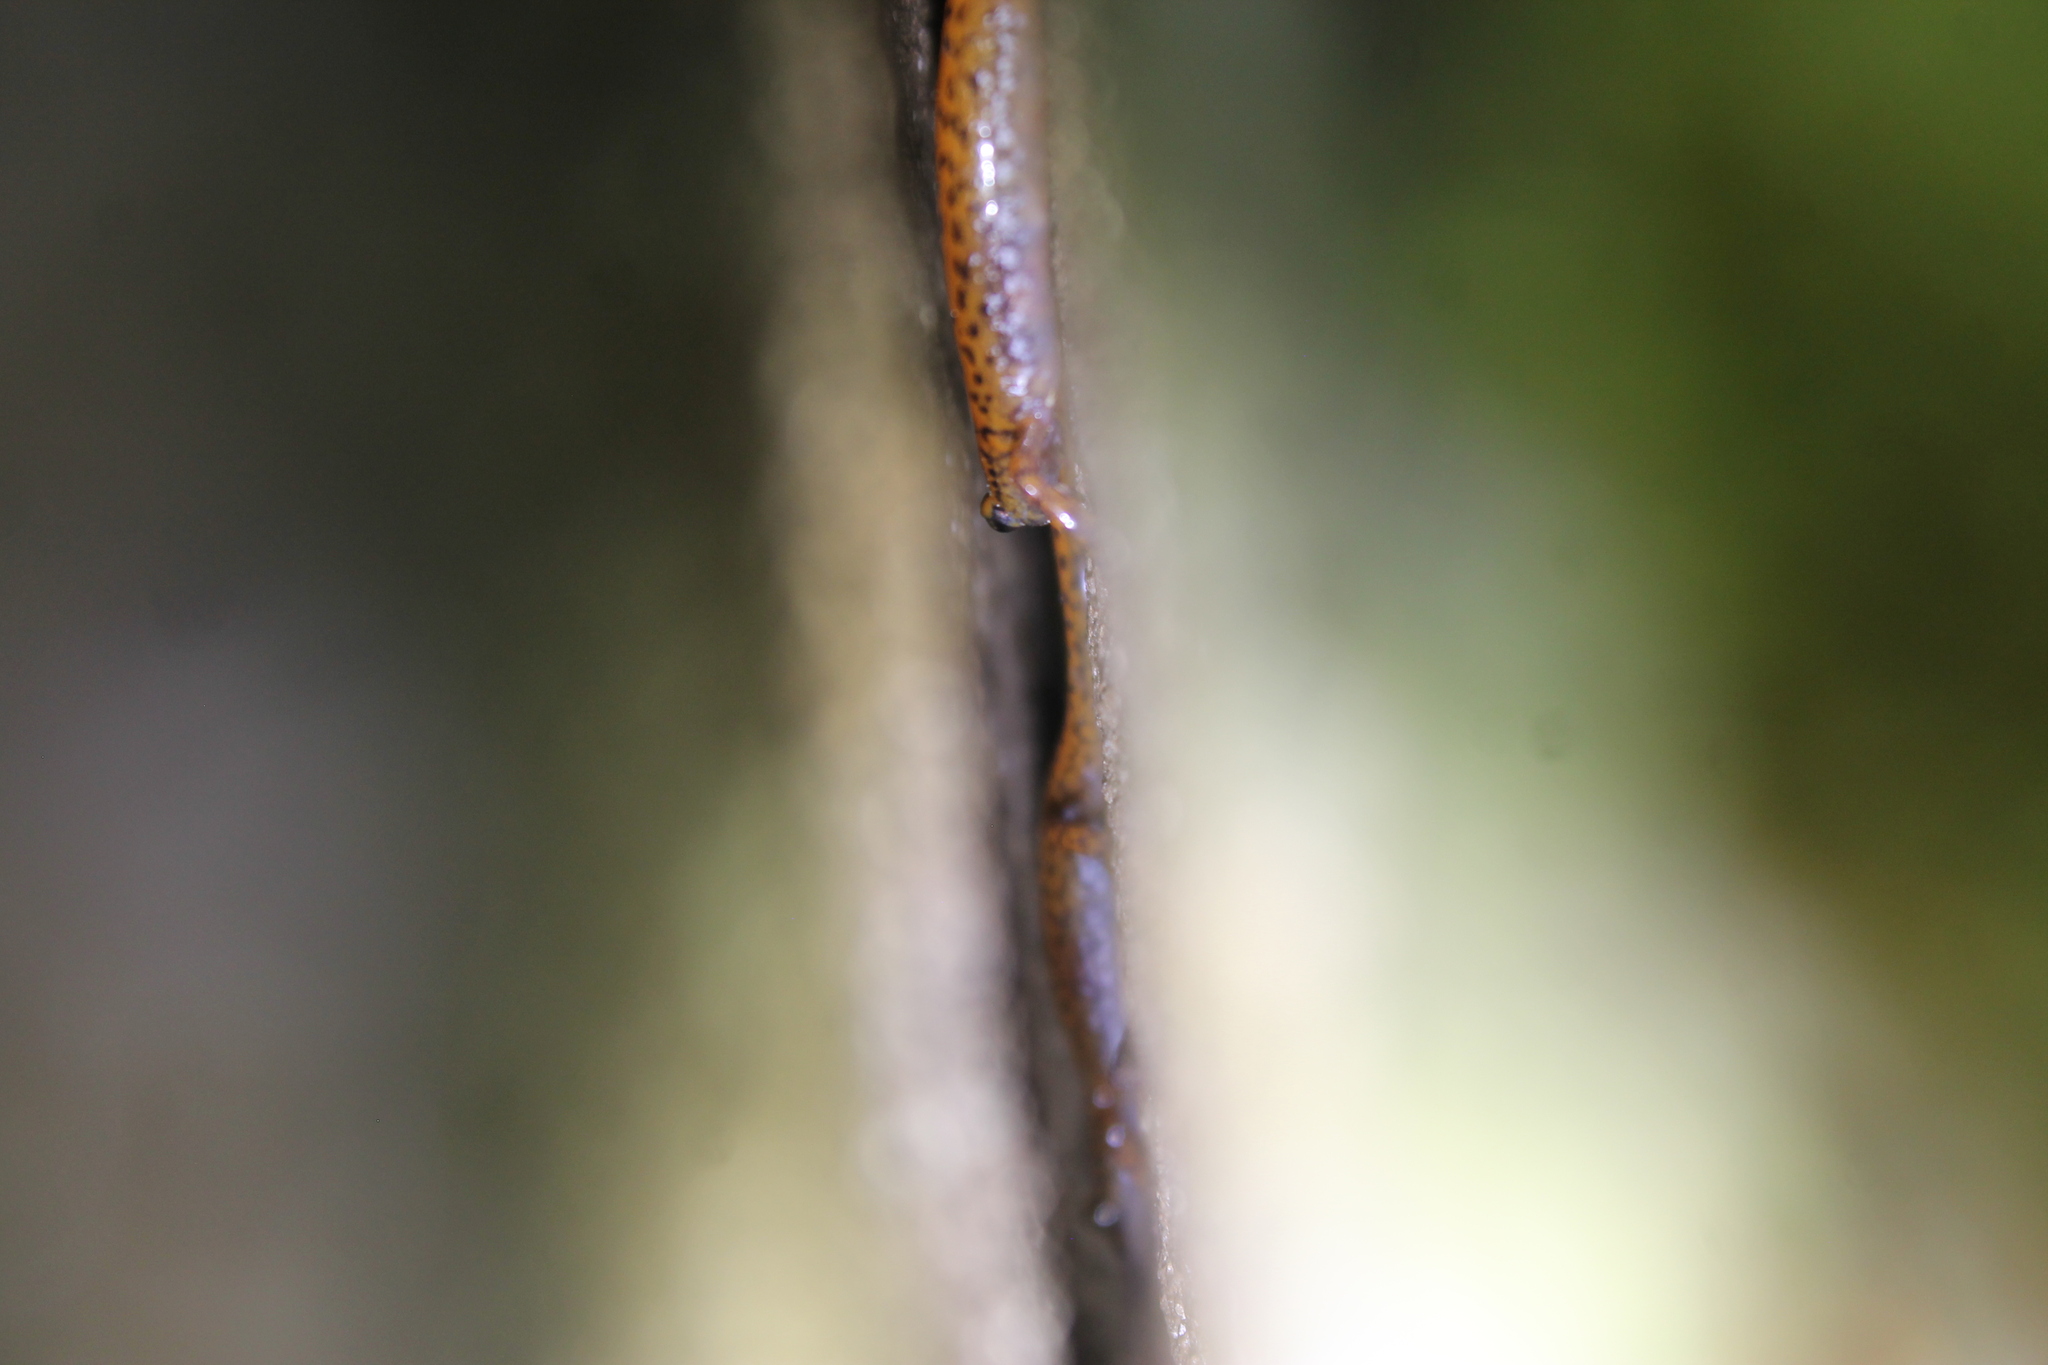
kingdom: Animalia
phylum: Chordata
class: Amphibia
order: Caudata
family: Plethodontidae
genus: Eurycea
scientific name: Eurycea lucifuga
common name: Cave salamander
